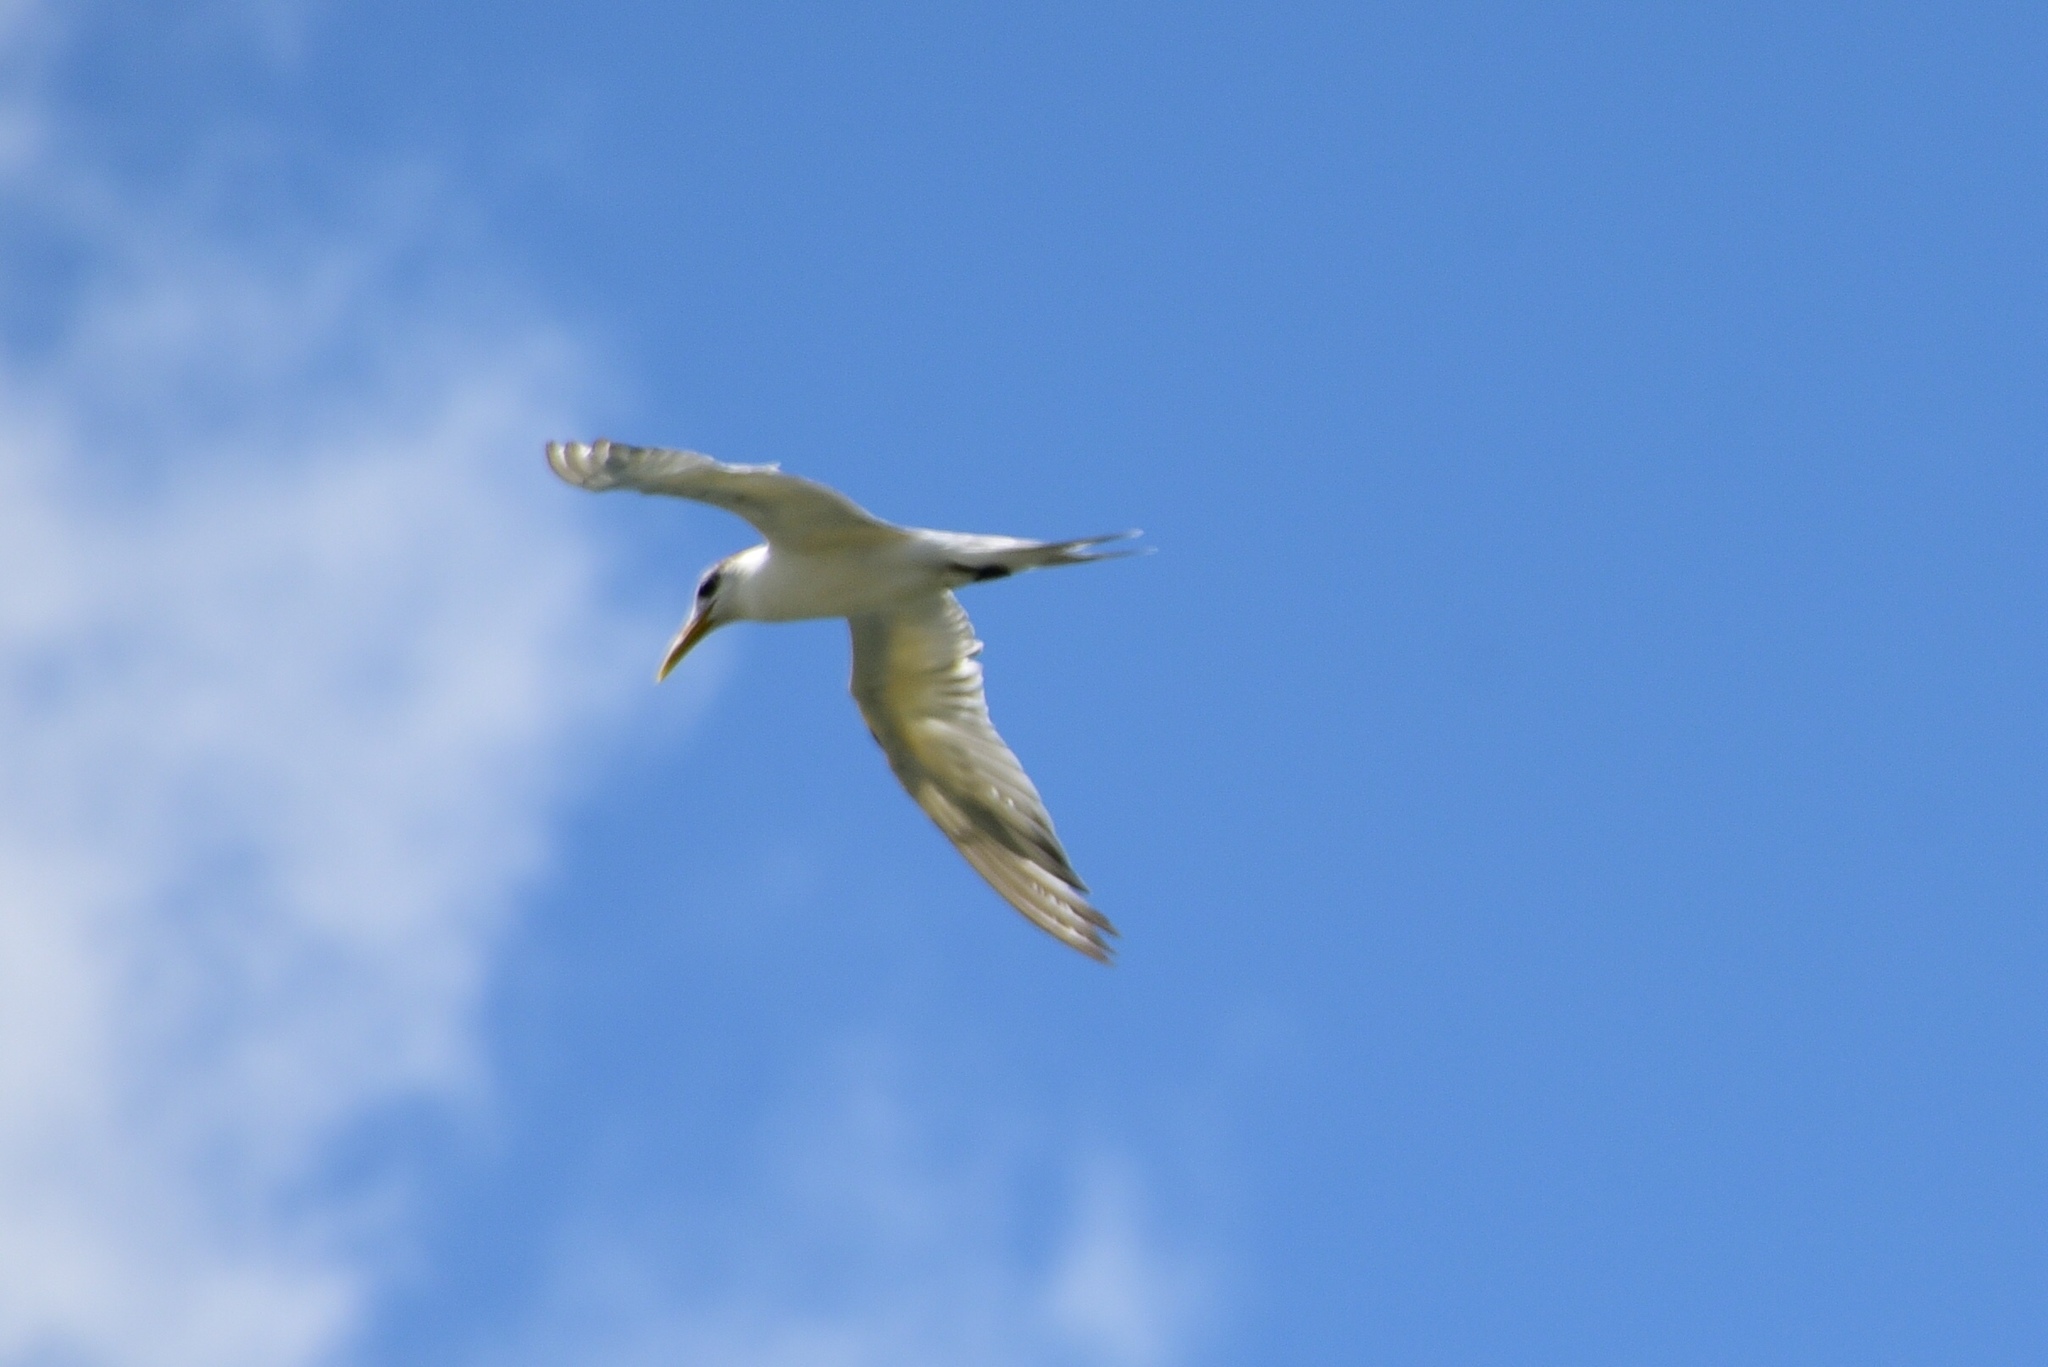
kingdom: Animalia
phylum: Chordata
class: Aves
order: Charadriiformes
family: Laridae
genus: Thalasseus
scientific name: Thalasseus bergii
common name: Greater crested tern
